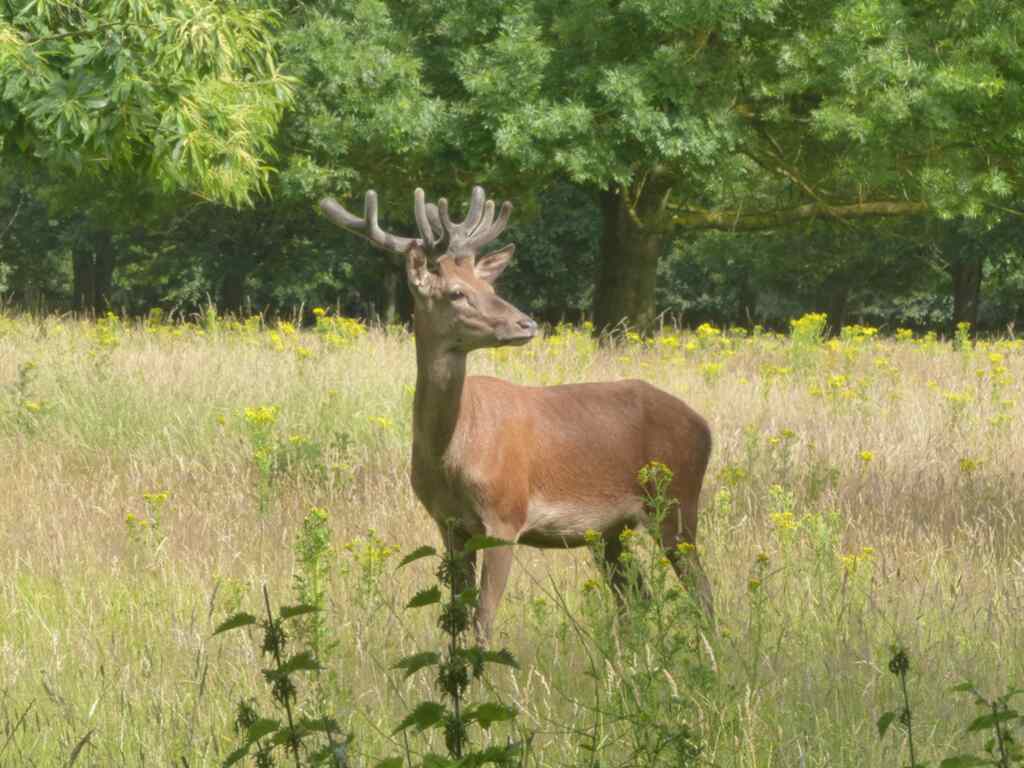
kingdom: Animalia
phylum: Chordata
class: Mammalia
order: Artiodactyla
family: Cervidae
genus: Cervus
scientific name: Cervus elaphus
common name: Red deer
